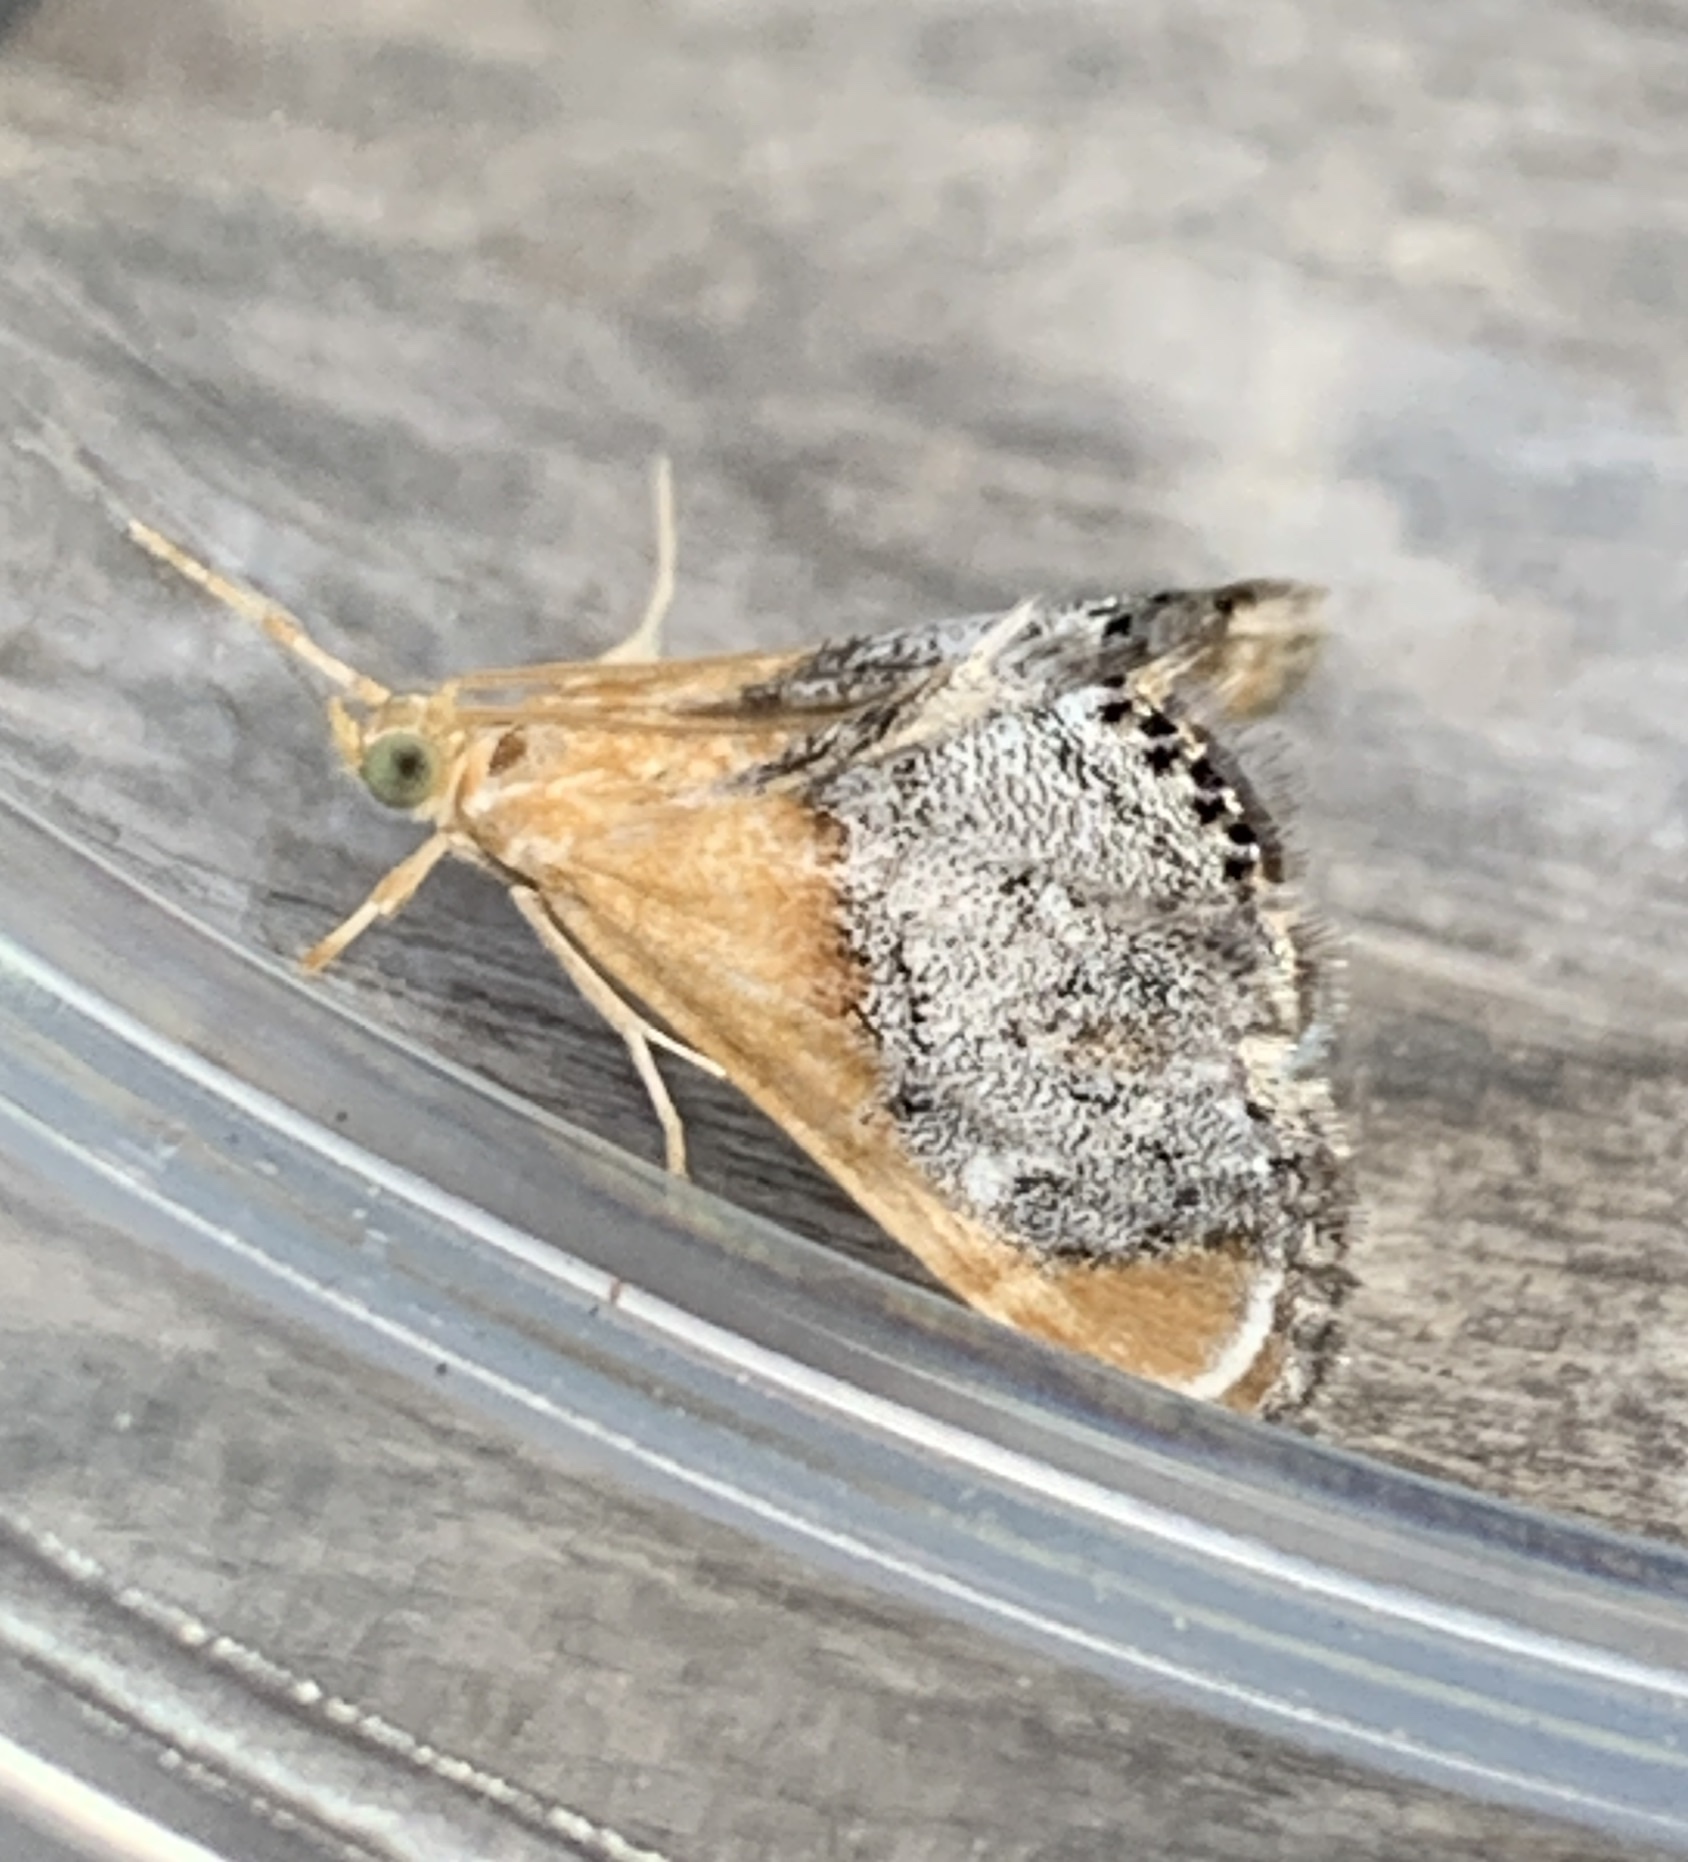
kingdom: Animalia
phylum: Arthropoda
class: Insecta
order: Lepidoptera
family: Crambidae
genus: Chalcoela
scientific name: Chalcoela iphitalis
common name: Sooty-winged chalcoela moth
